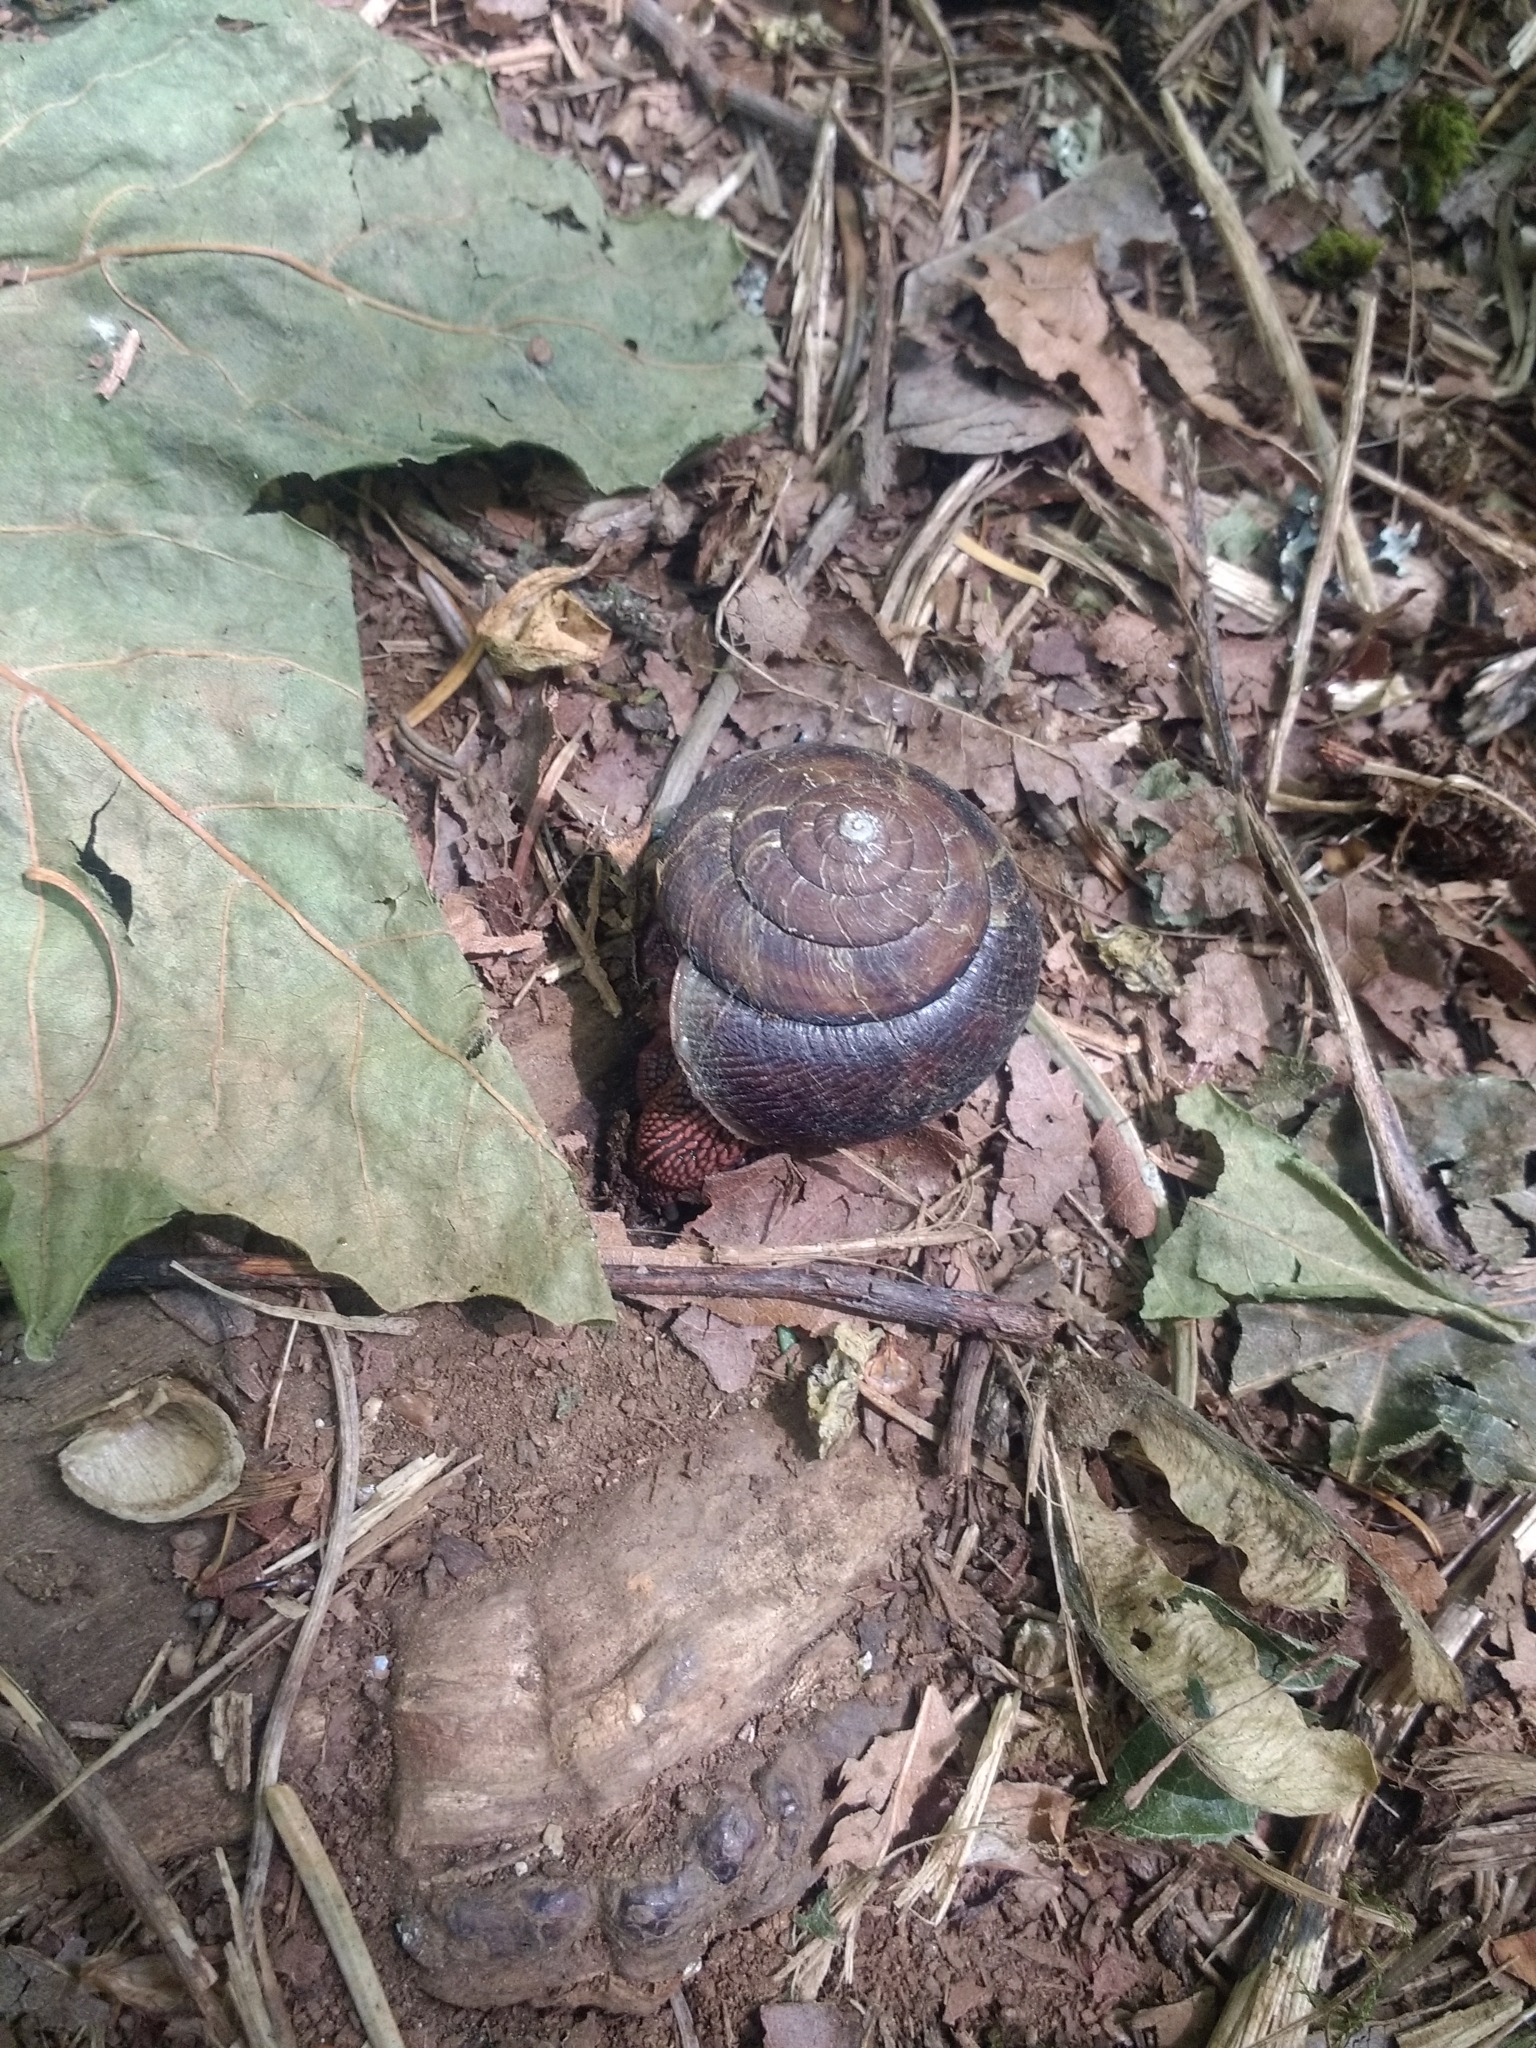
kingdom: Animalia
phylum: Mollusca
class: Gastropoda
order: Stylommatophora
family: Xanthonychidae
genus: Monadenia
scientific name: Monadenia fidelis
